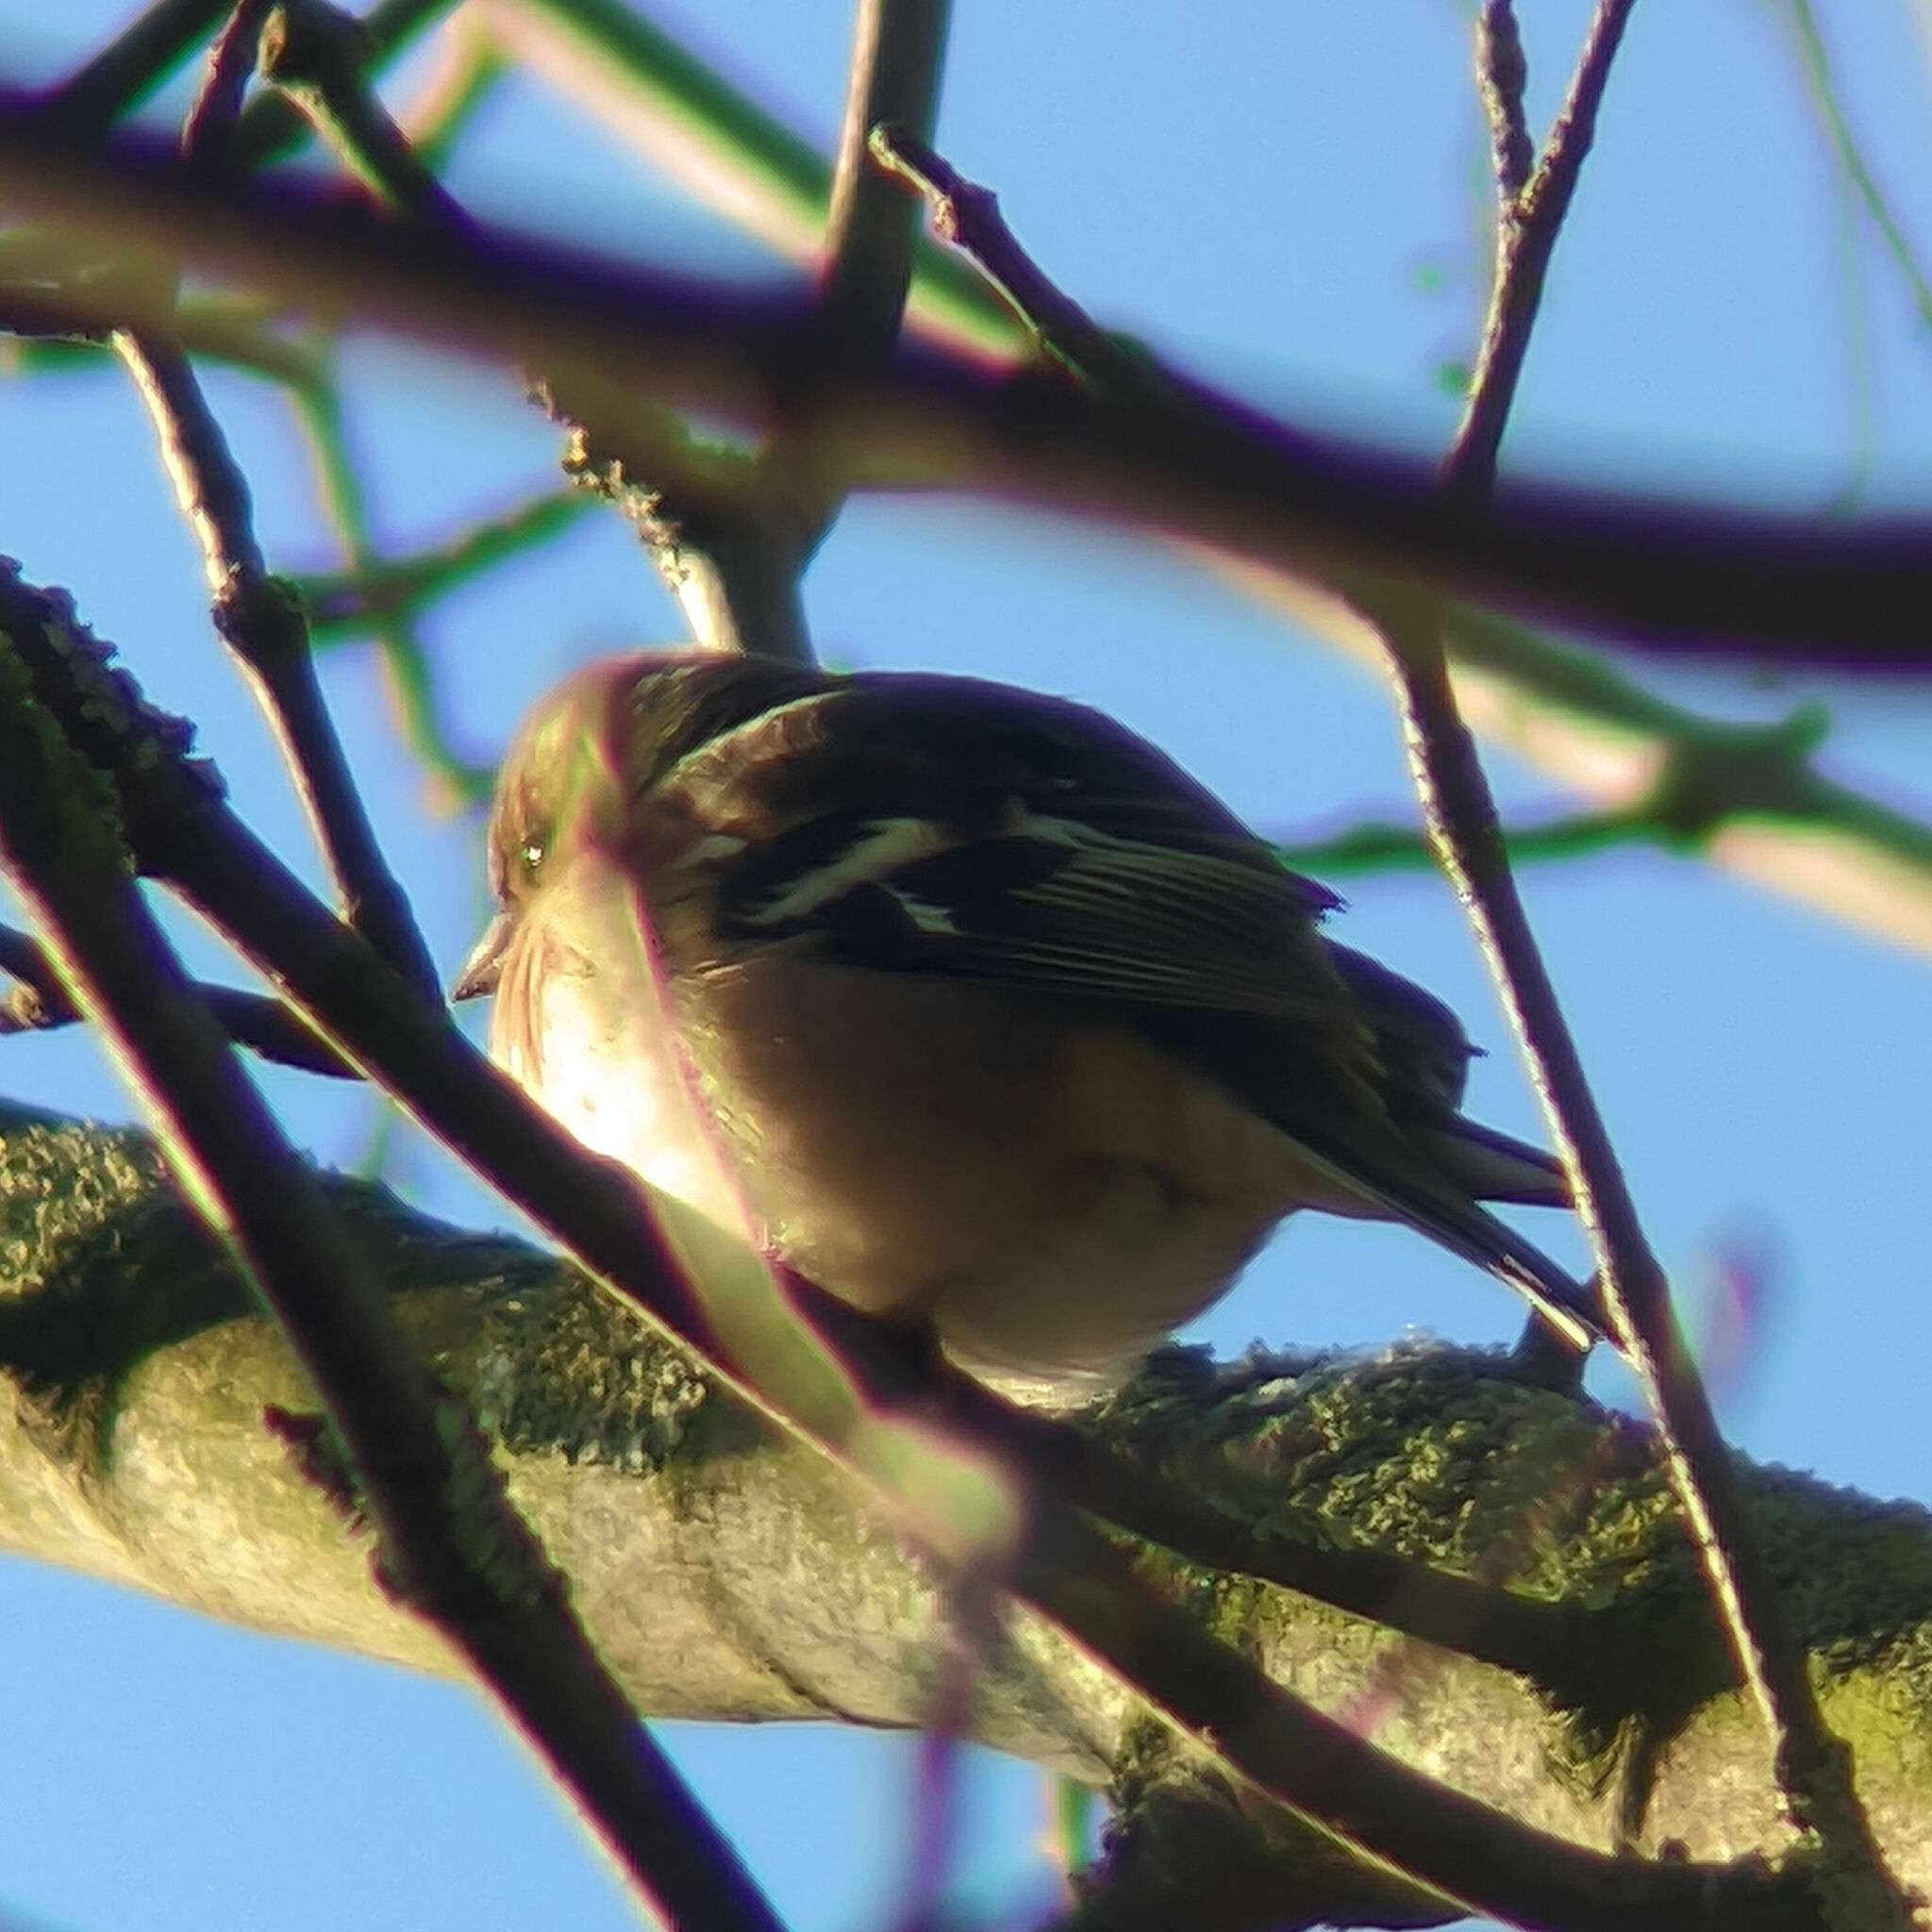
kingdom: Animalia
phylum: Chordata
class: Aves
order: Passeriformes
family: Fringillidae
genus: Fringilla
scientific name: Fringilla coelebs
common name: Common chaffinch
